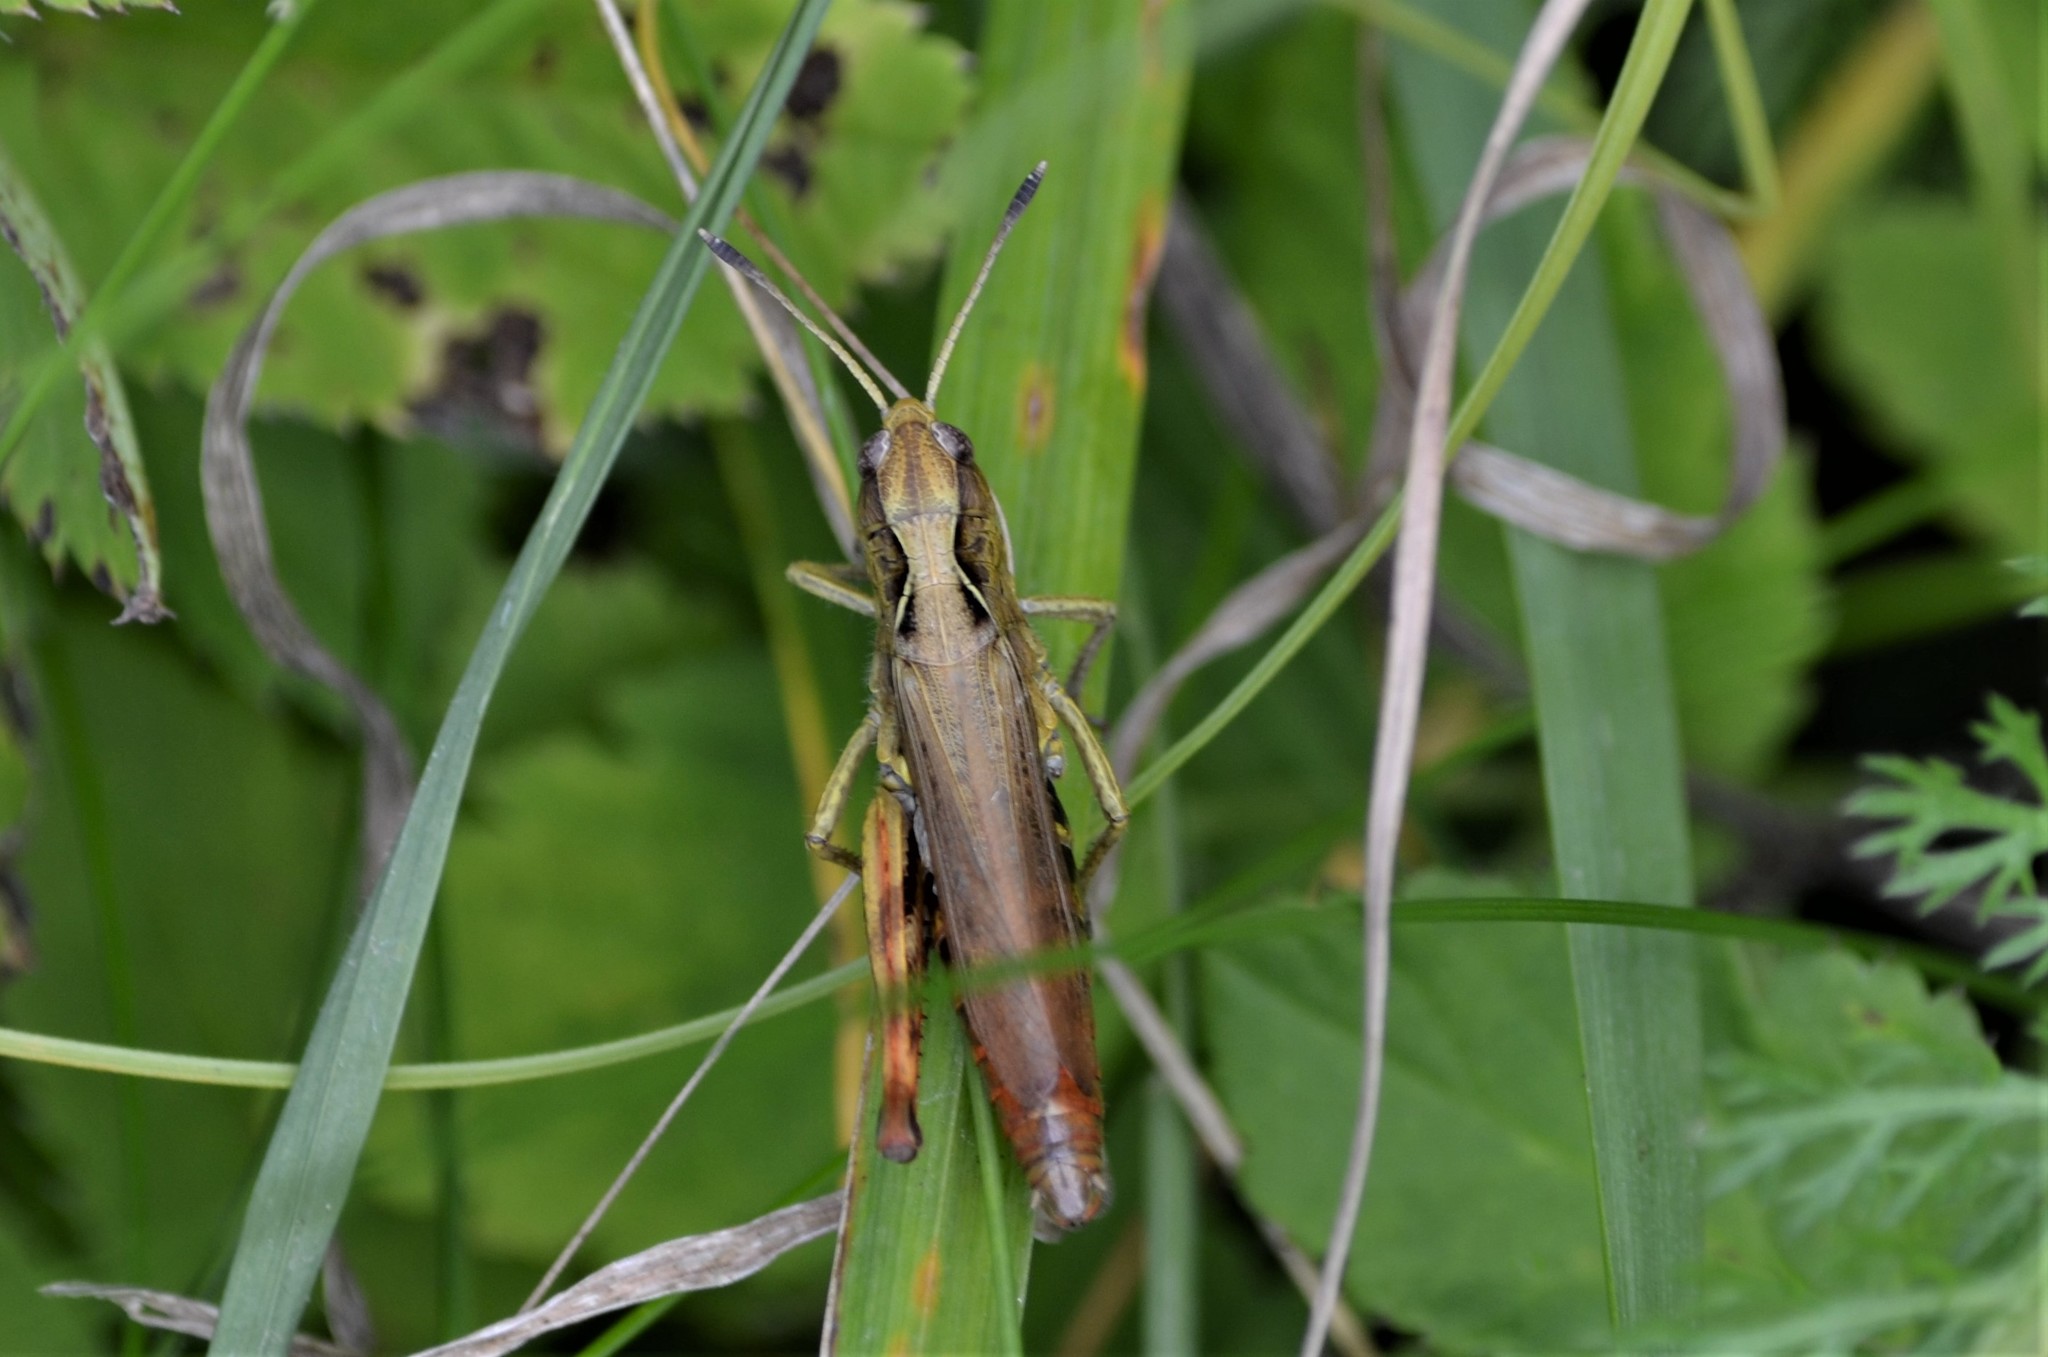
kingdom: Animalia
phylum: Arthropoda
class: Insecta
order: Orthoptera
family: Acrididae
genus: Gomphocerippus
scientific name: Gomphocerippus rufus
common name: Rufous grasshopper
